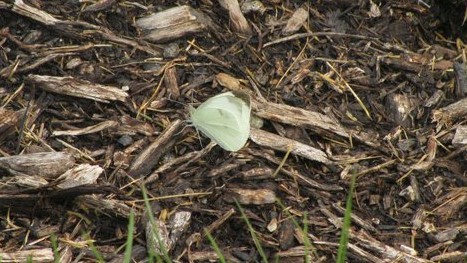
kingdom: Animalia
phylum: Arthropoda
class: Insecta
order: Lepidoptera
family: Pieridae
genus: Pieris
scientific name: Pieris rapae
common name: Small white
